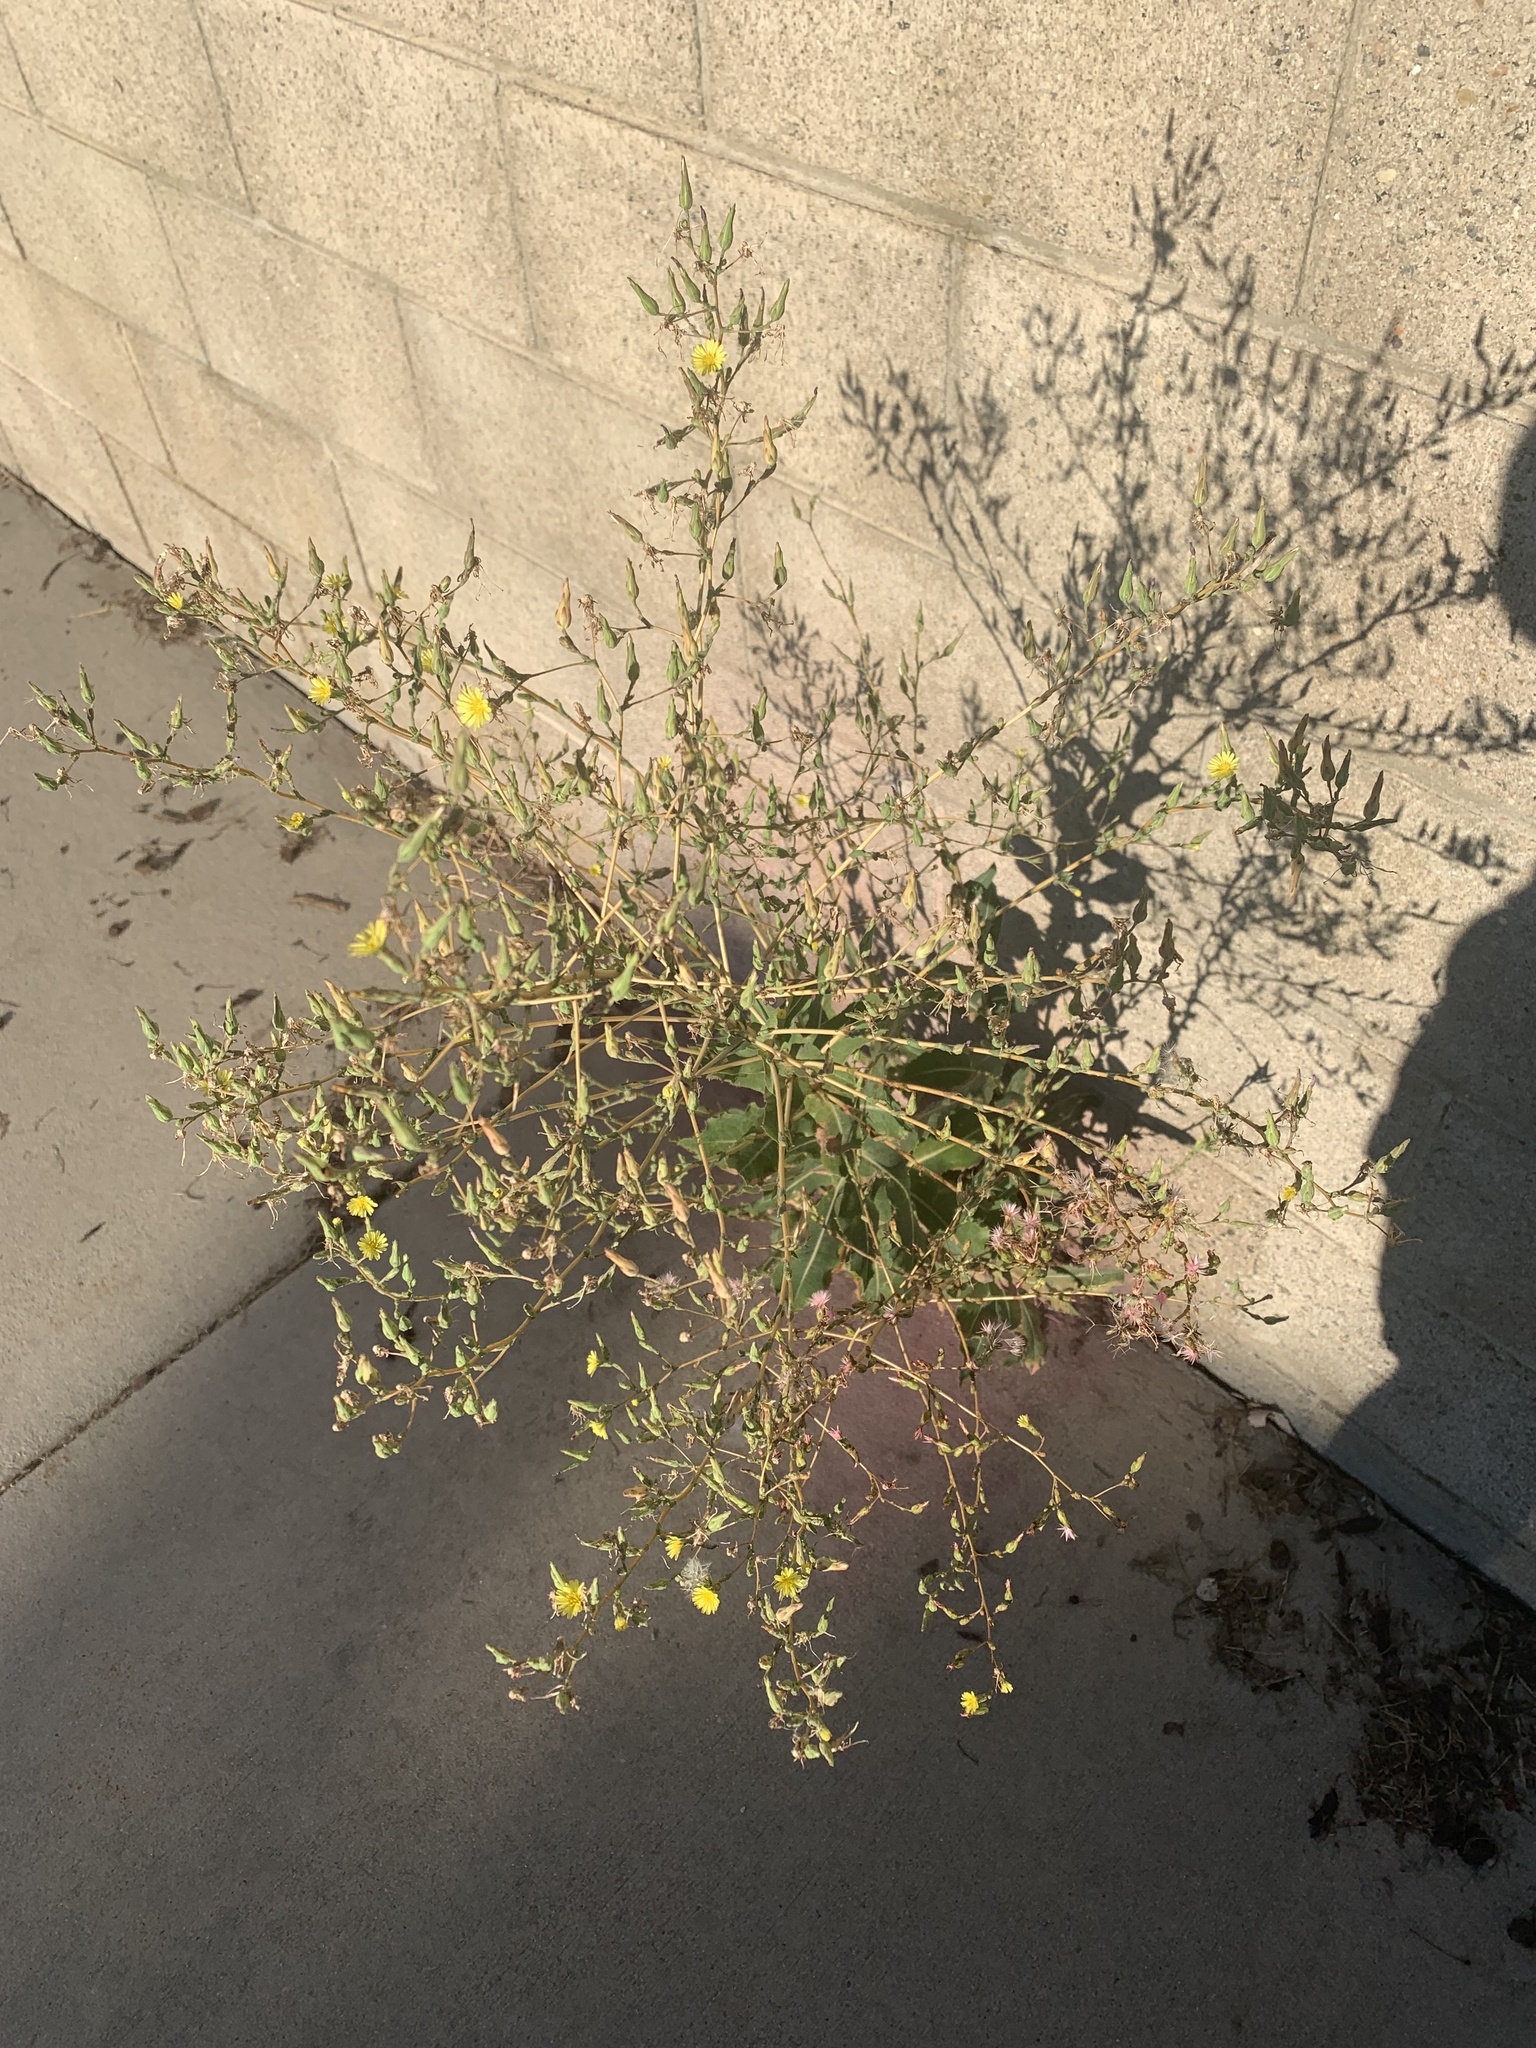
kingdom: Plantae
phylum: Tracheophyta
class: Magnoliopsida
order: Asterales
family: Asteraceae
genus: Lactuca
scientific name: Lactuca serriola
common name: Prickly lettuce
